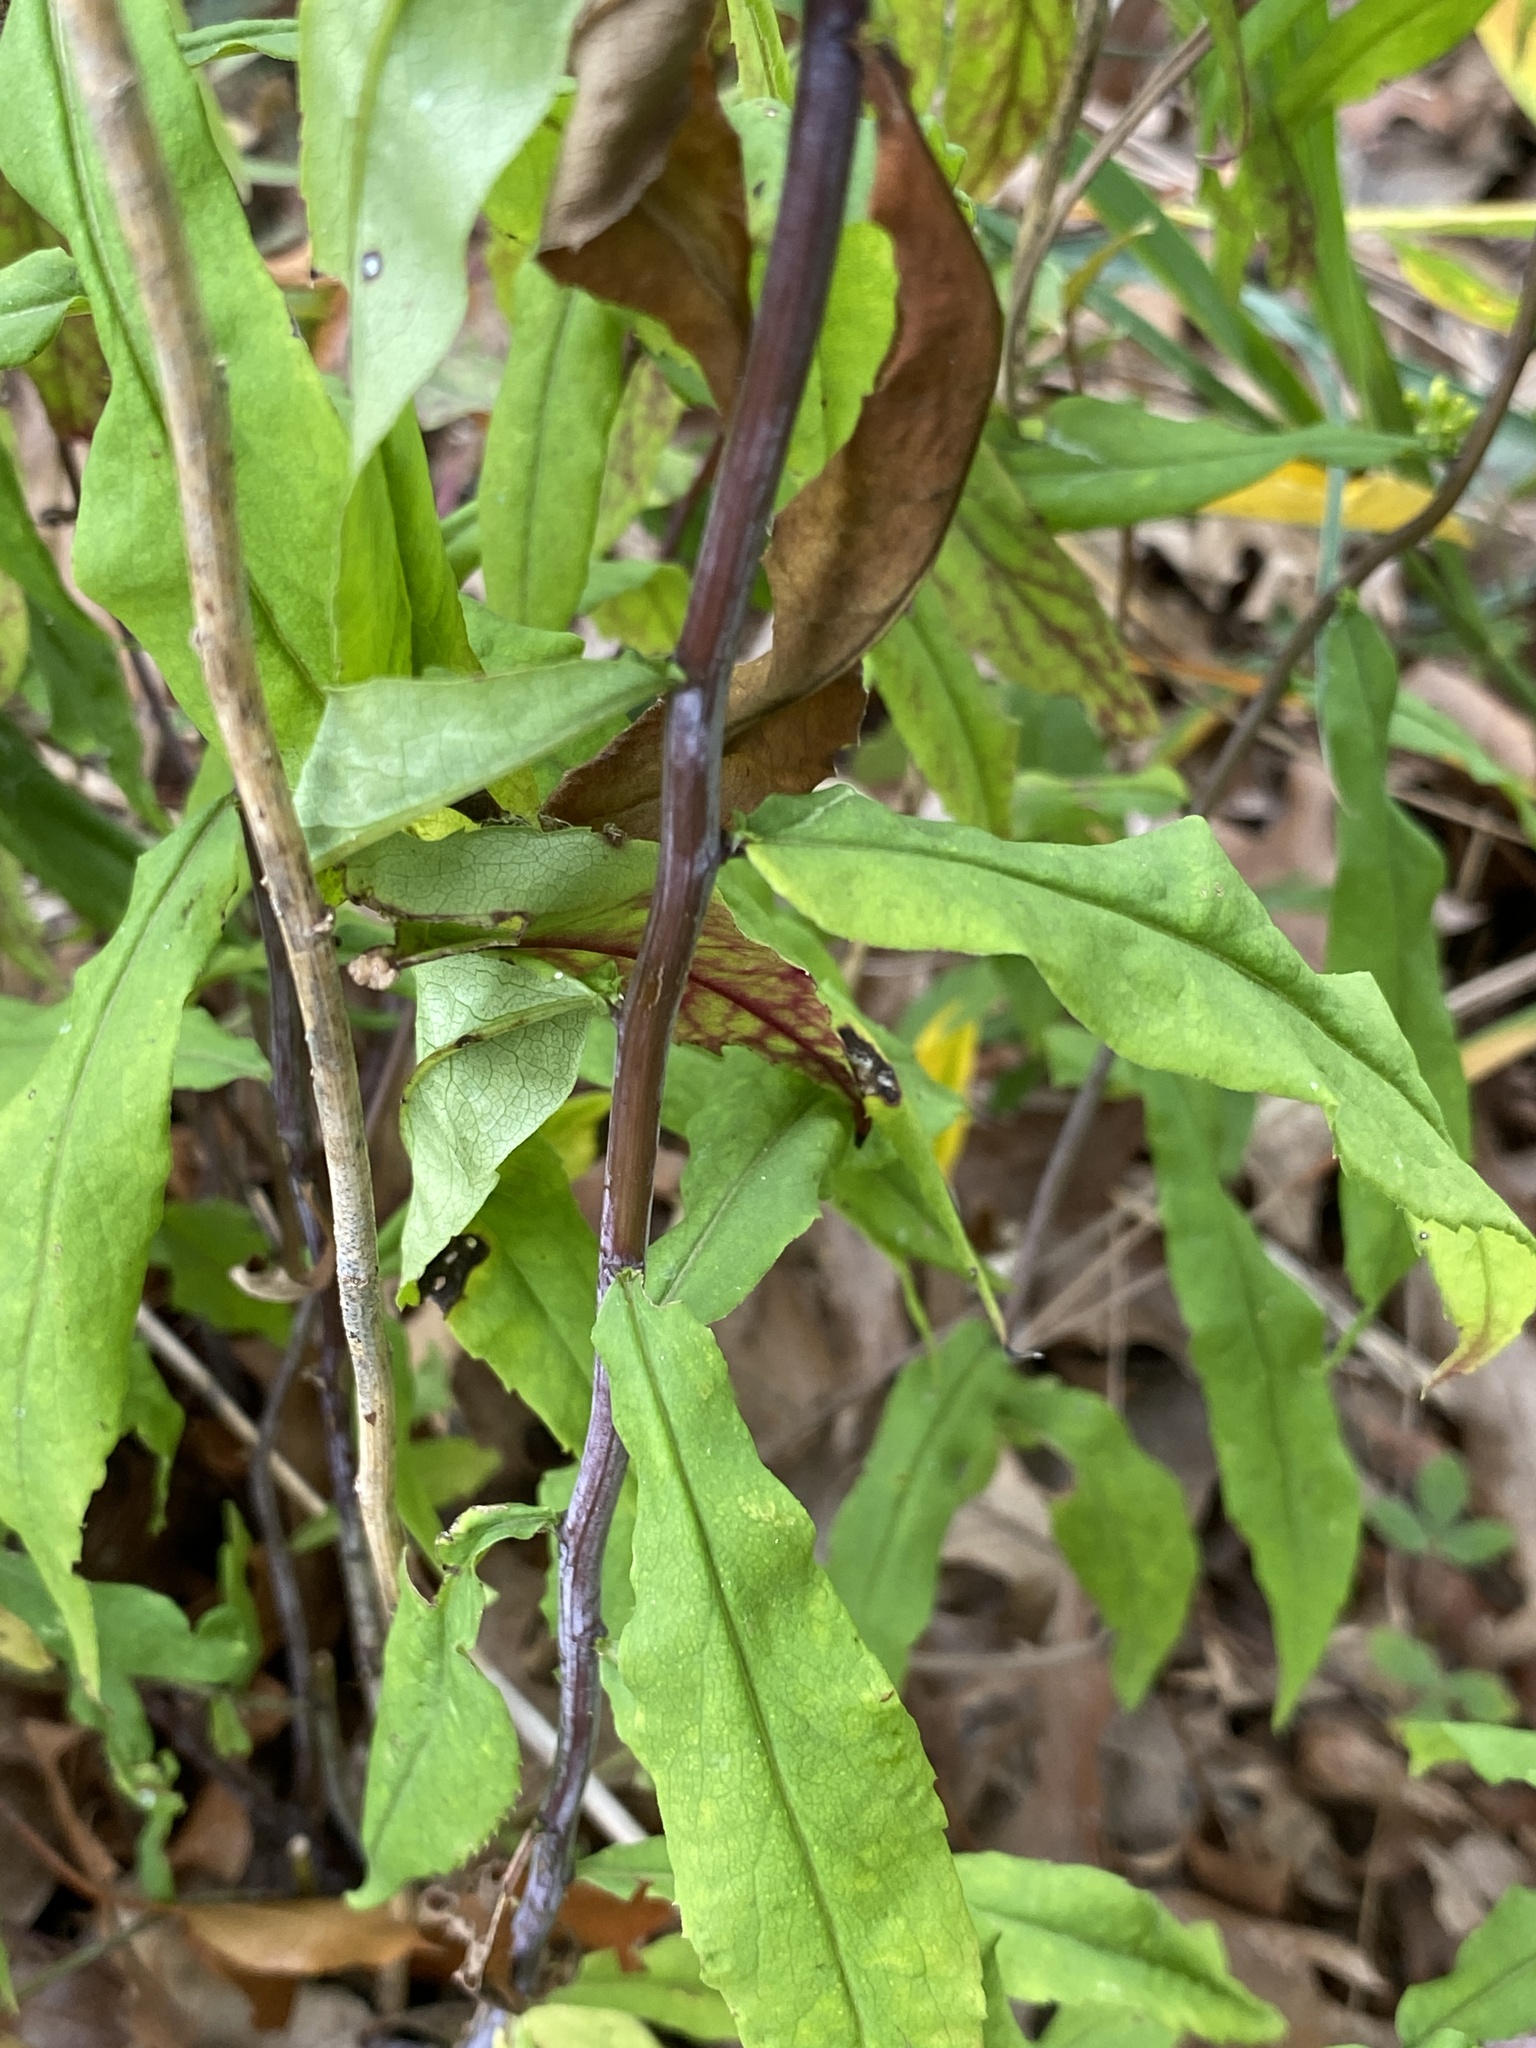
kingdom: Plantae
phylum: Tracheophyta
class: Magnoliopsida
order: Asterales
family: Asteraceae
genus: Solidago
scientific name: Solidago caesia
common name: Woodland goldenrod
